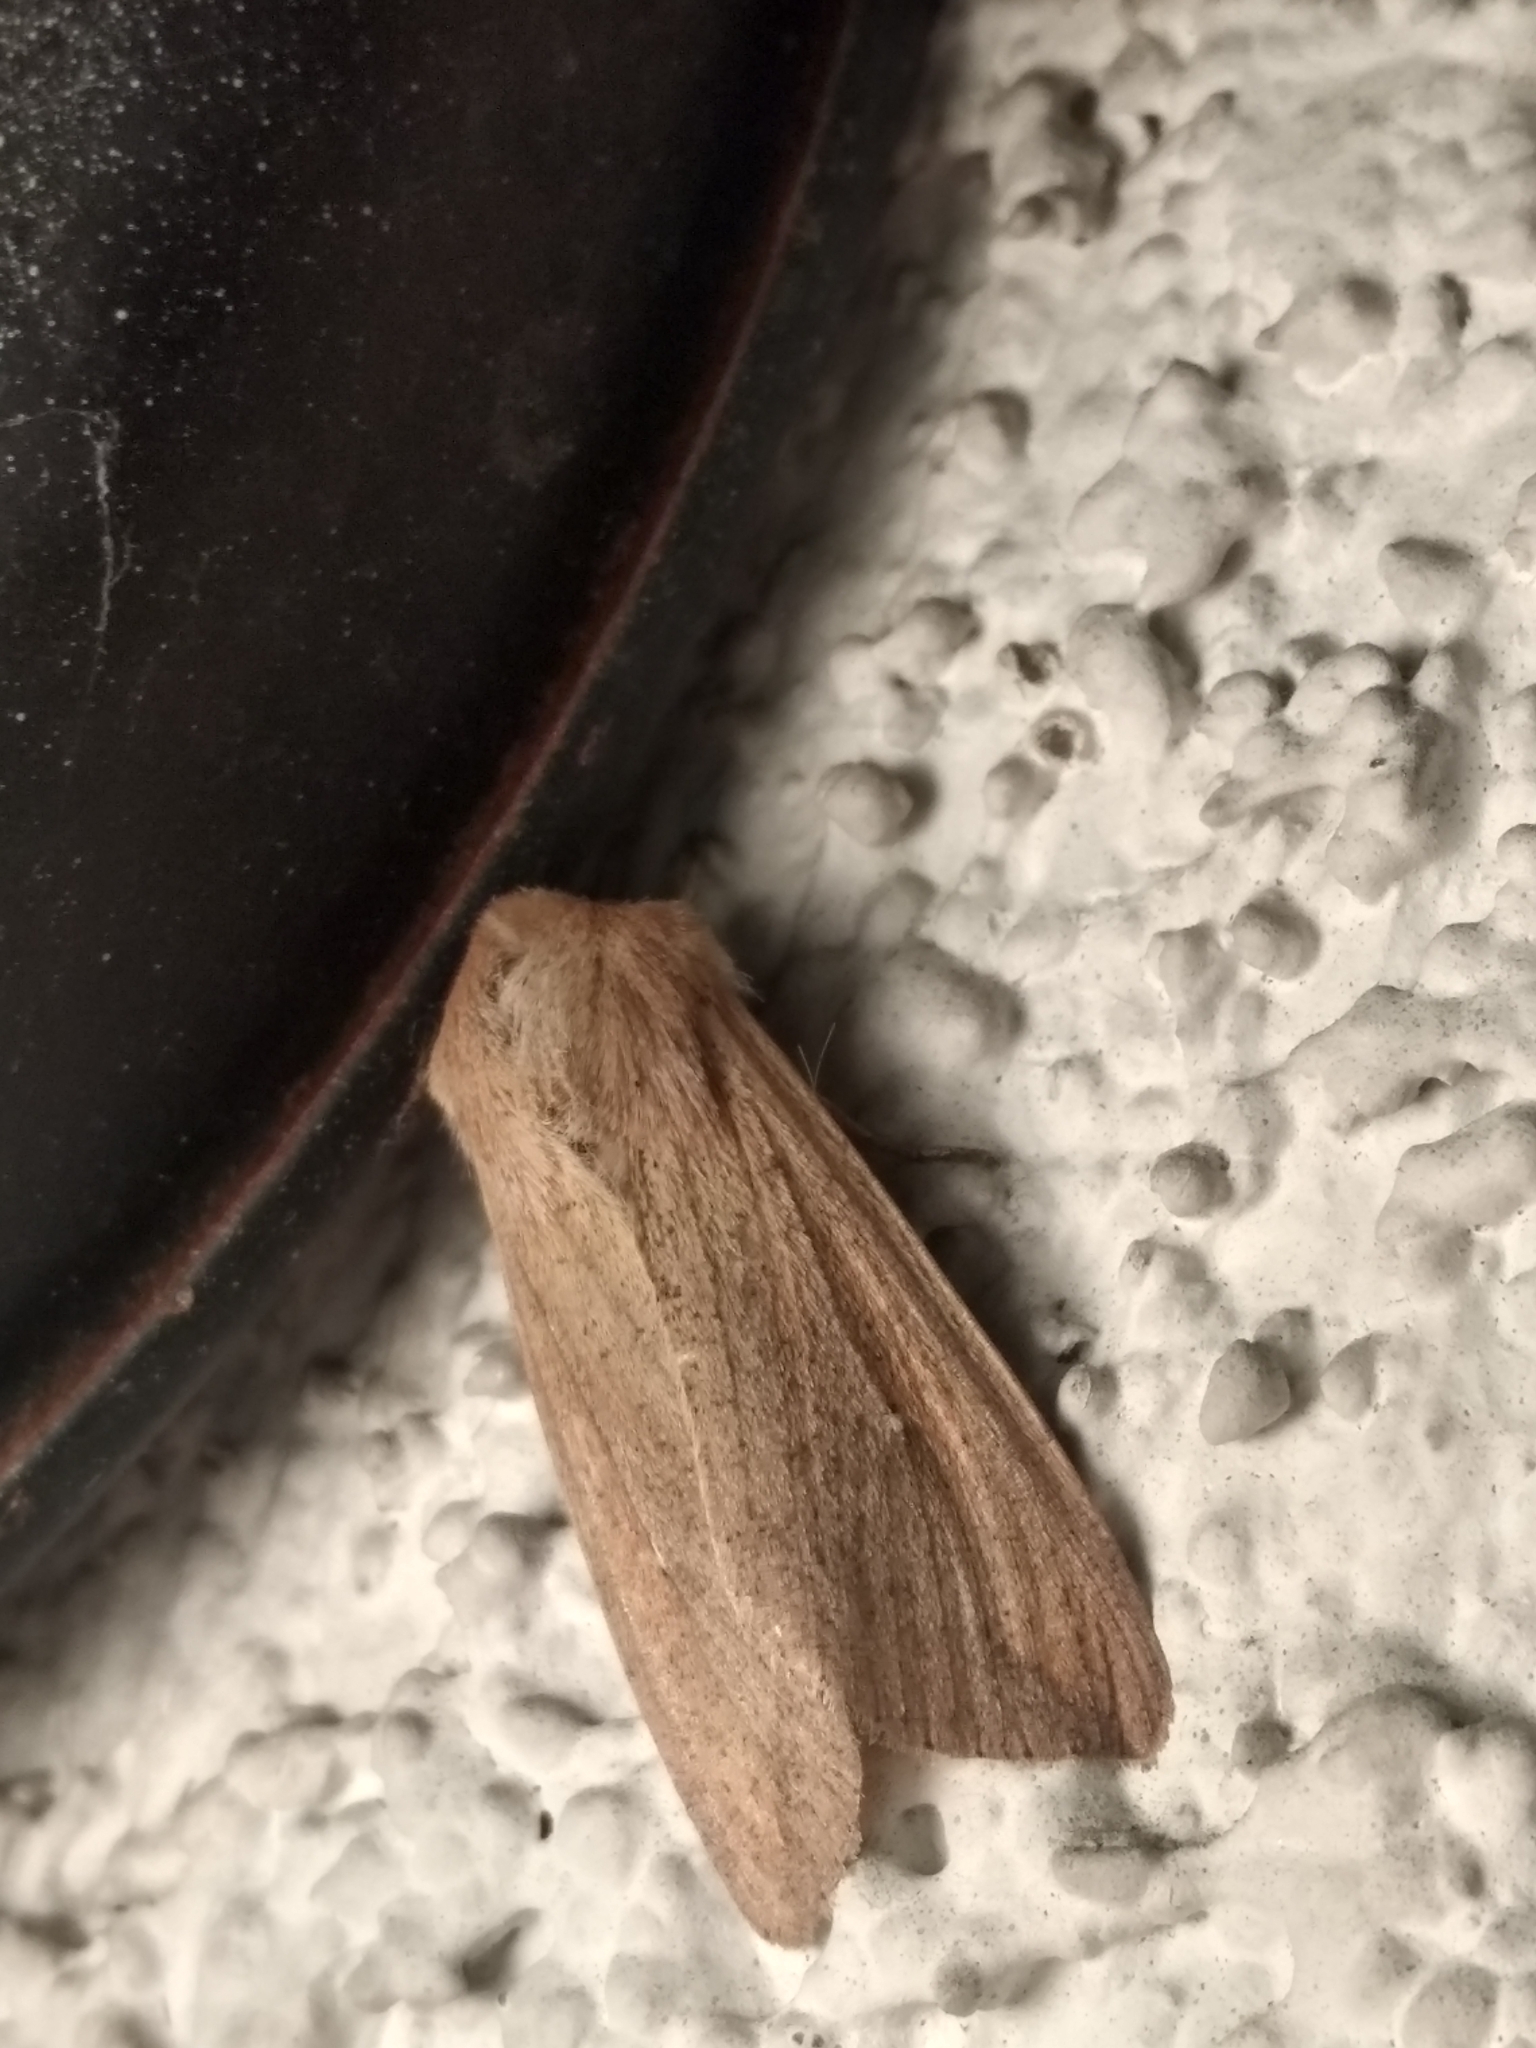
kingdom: Animalia
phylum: Arthropoda
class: Insecta
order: Lepidoptera
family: Noctuidae
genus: Mythimna
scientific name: Mythimna unipuncta
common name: White-speck
